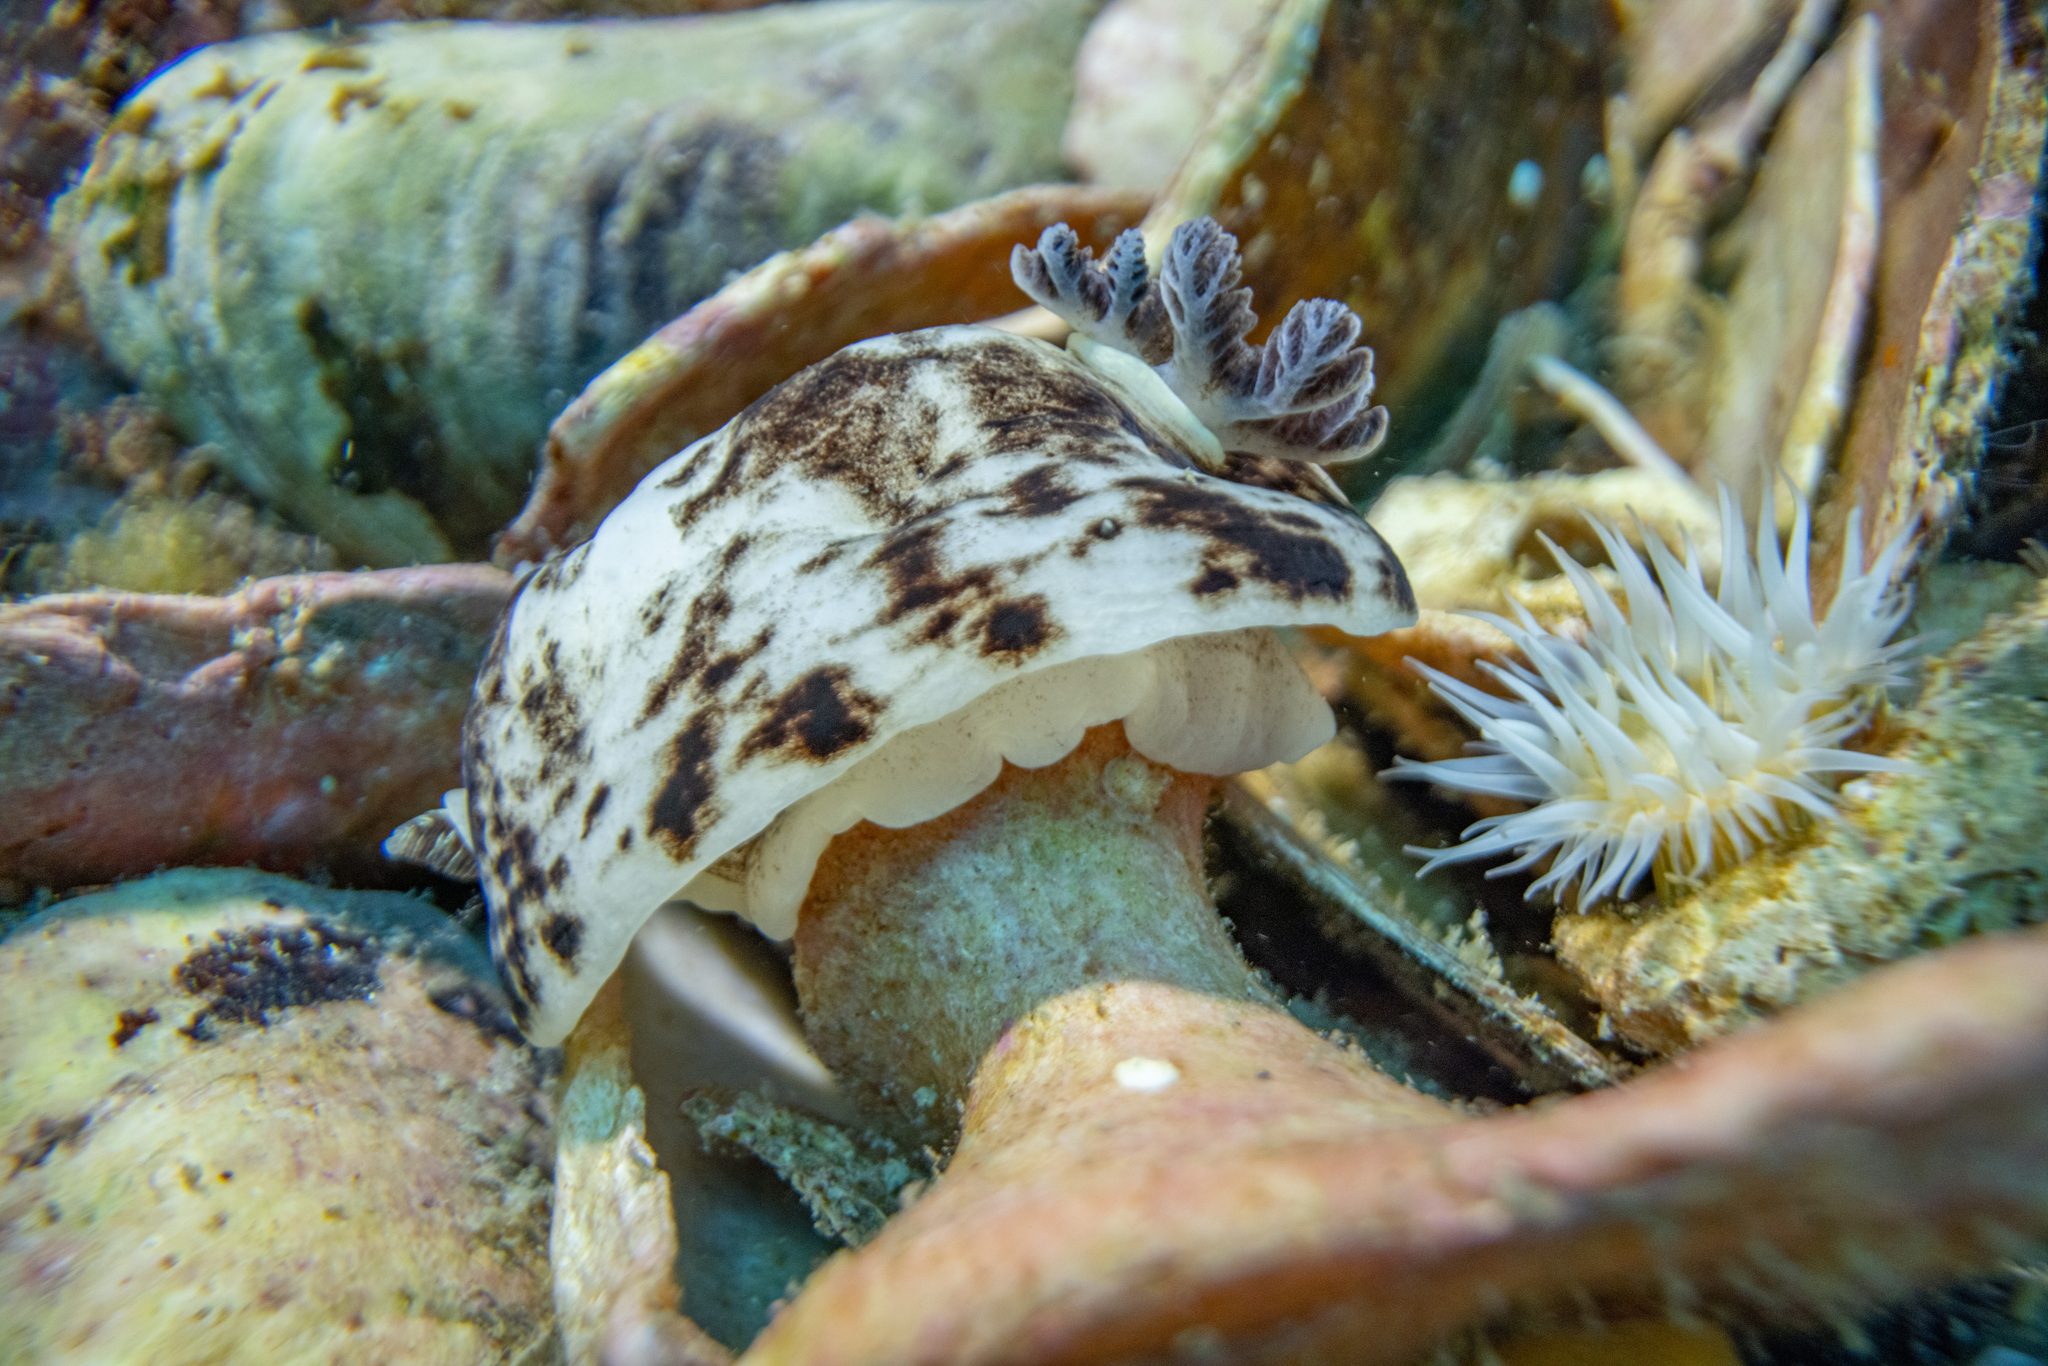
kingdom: Animalia
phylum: Mollusca
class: Gastropoda
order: Nudibranchia
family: Dorididae
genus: Aphelodoris
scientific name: Aphelodoris luctuosa
